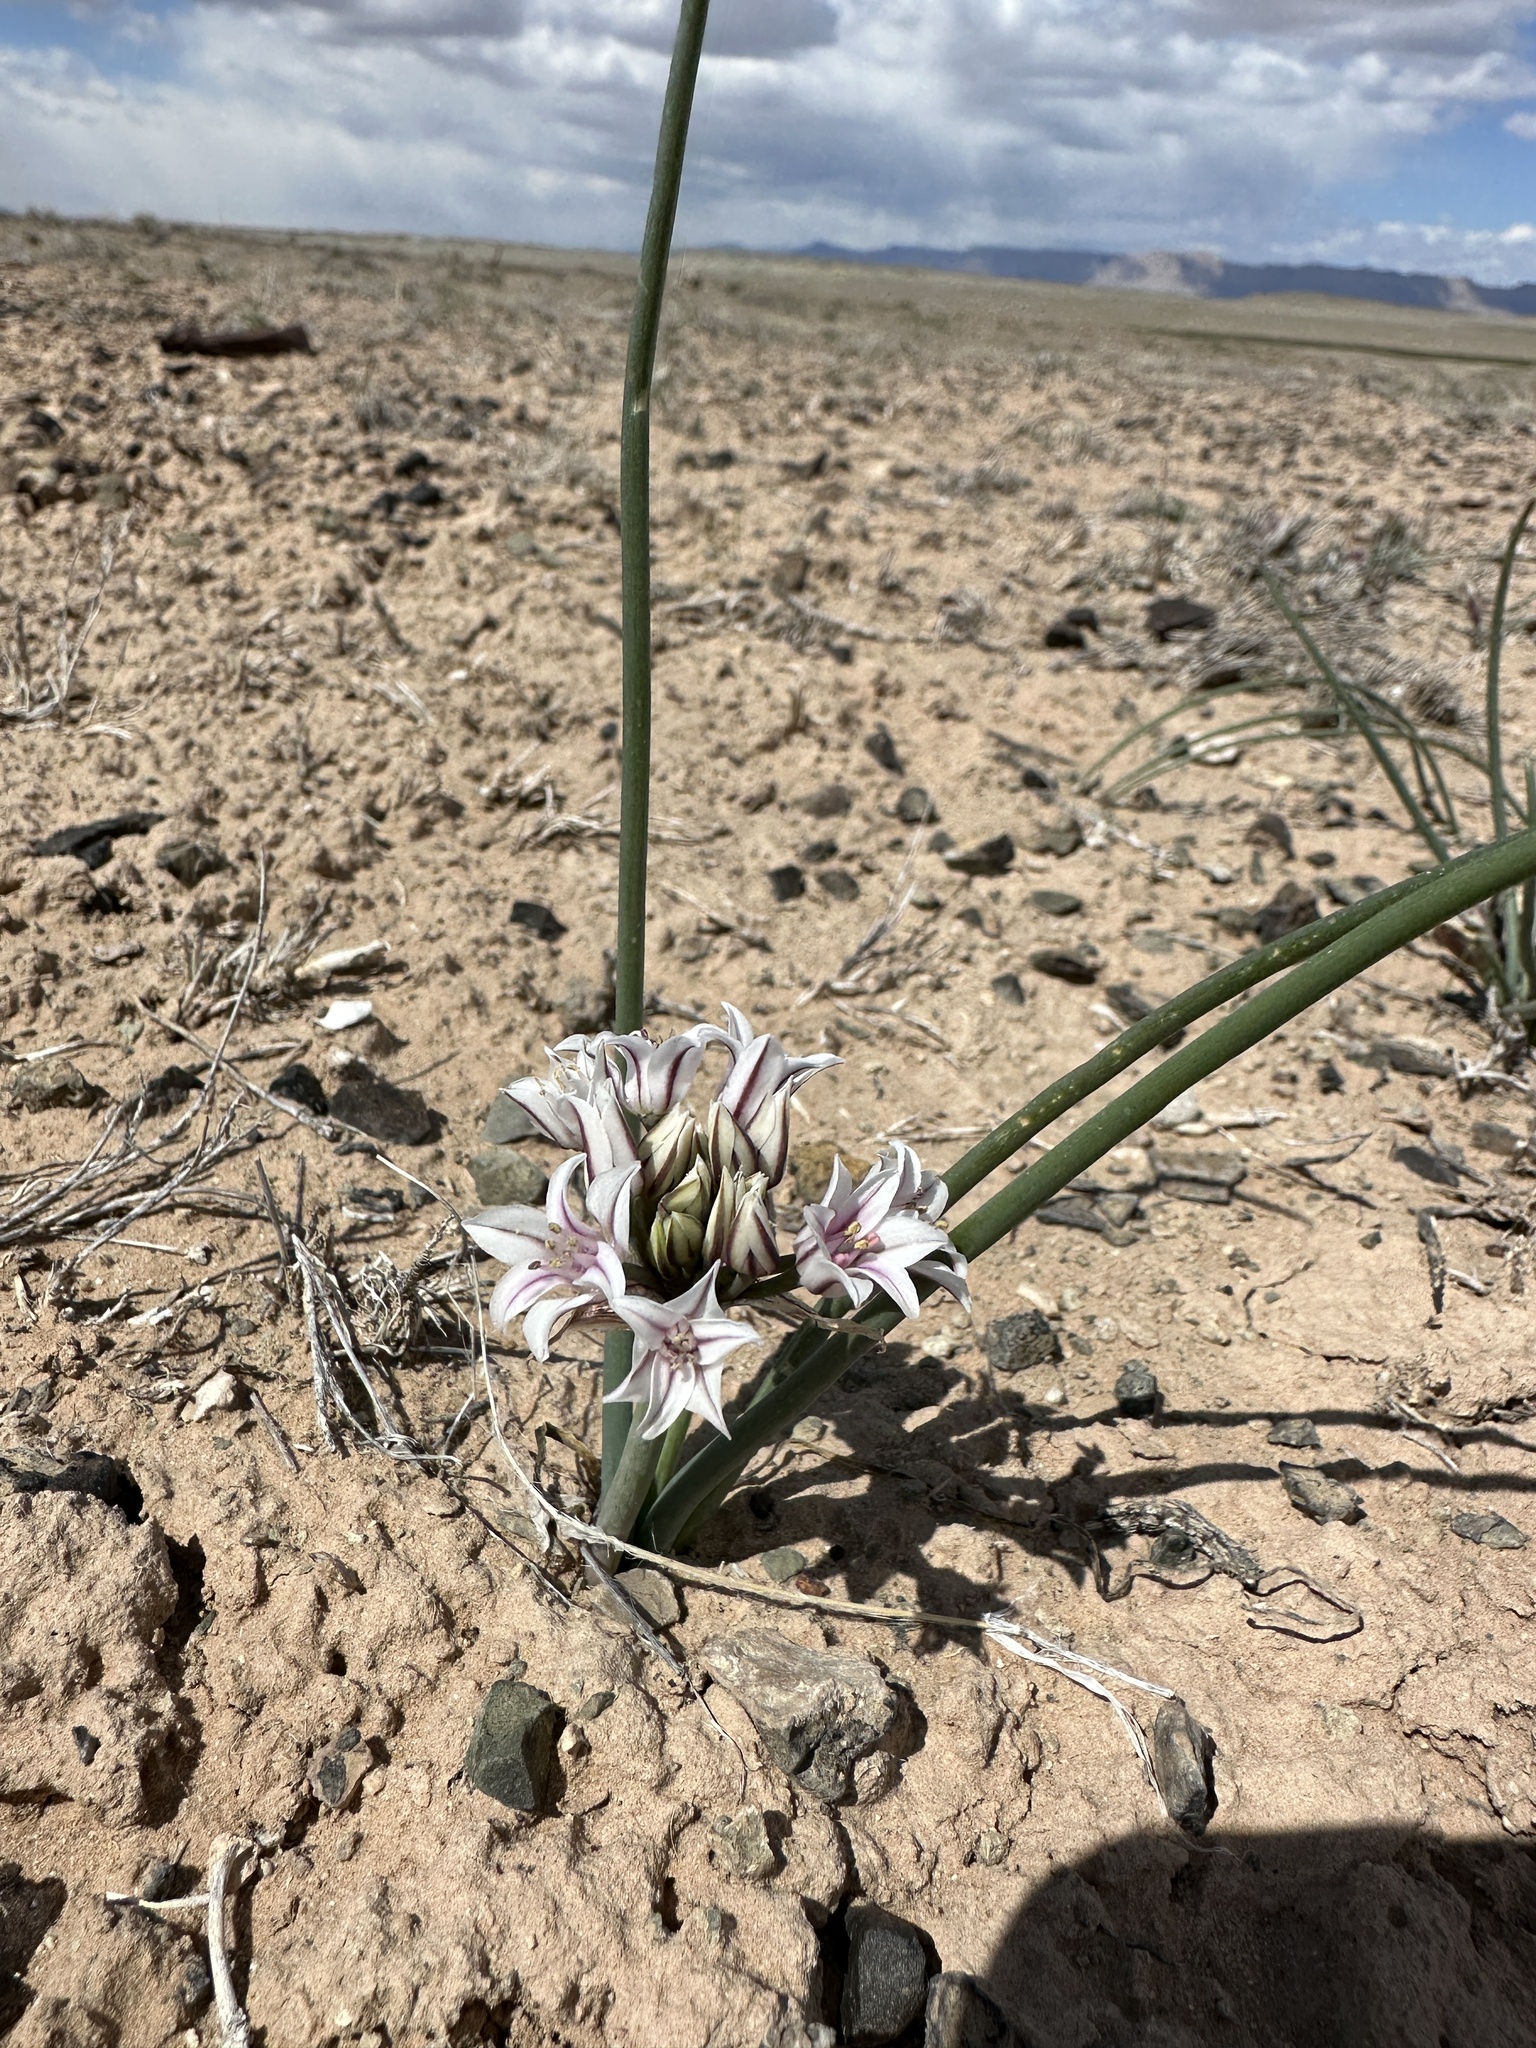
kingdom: Plantae
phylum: Tracheophyta
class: Liliopsida
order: Asparagales
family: Amaryllidaceae
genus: Allium
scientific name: Allium macropetalum
